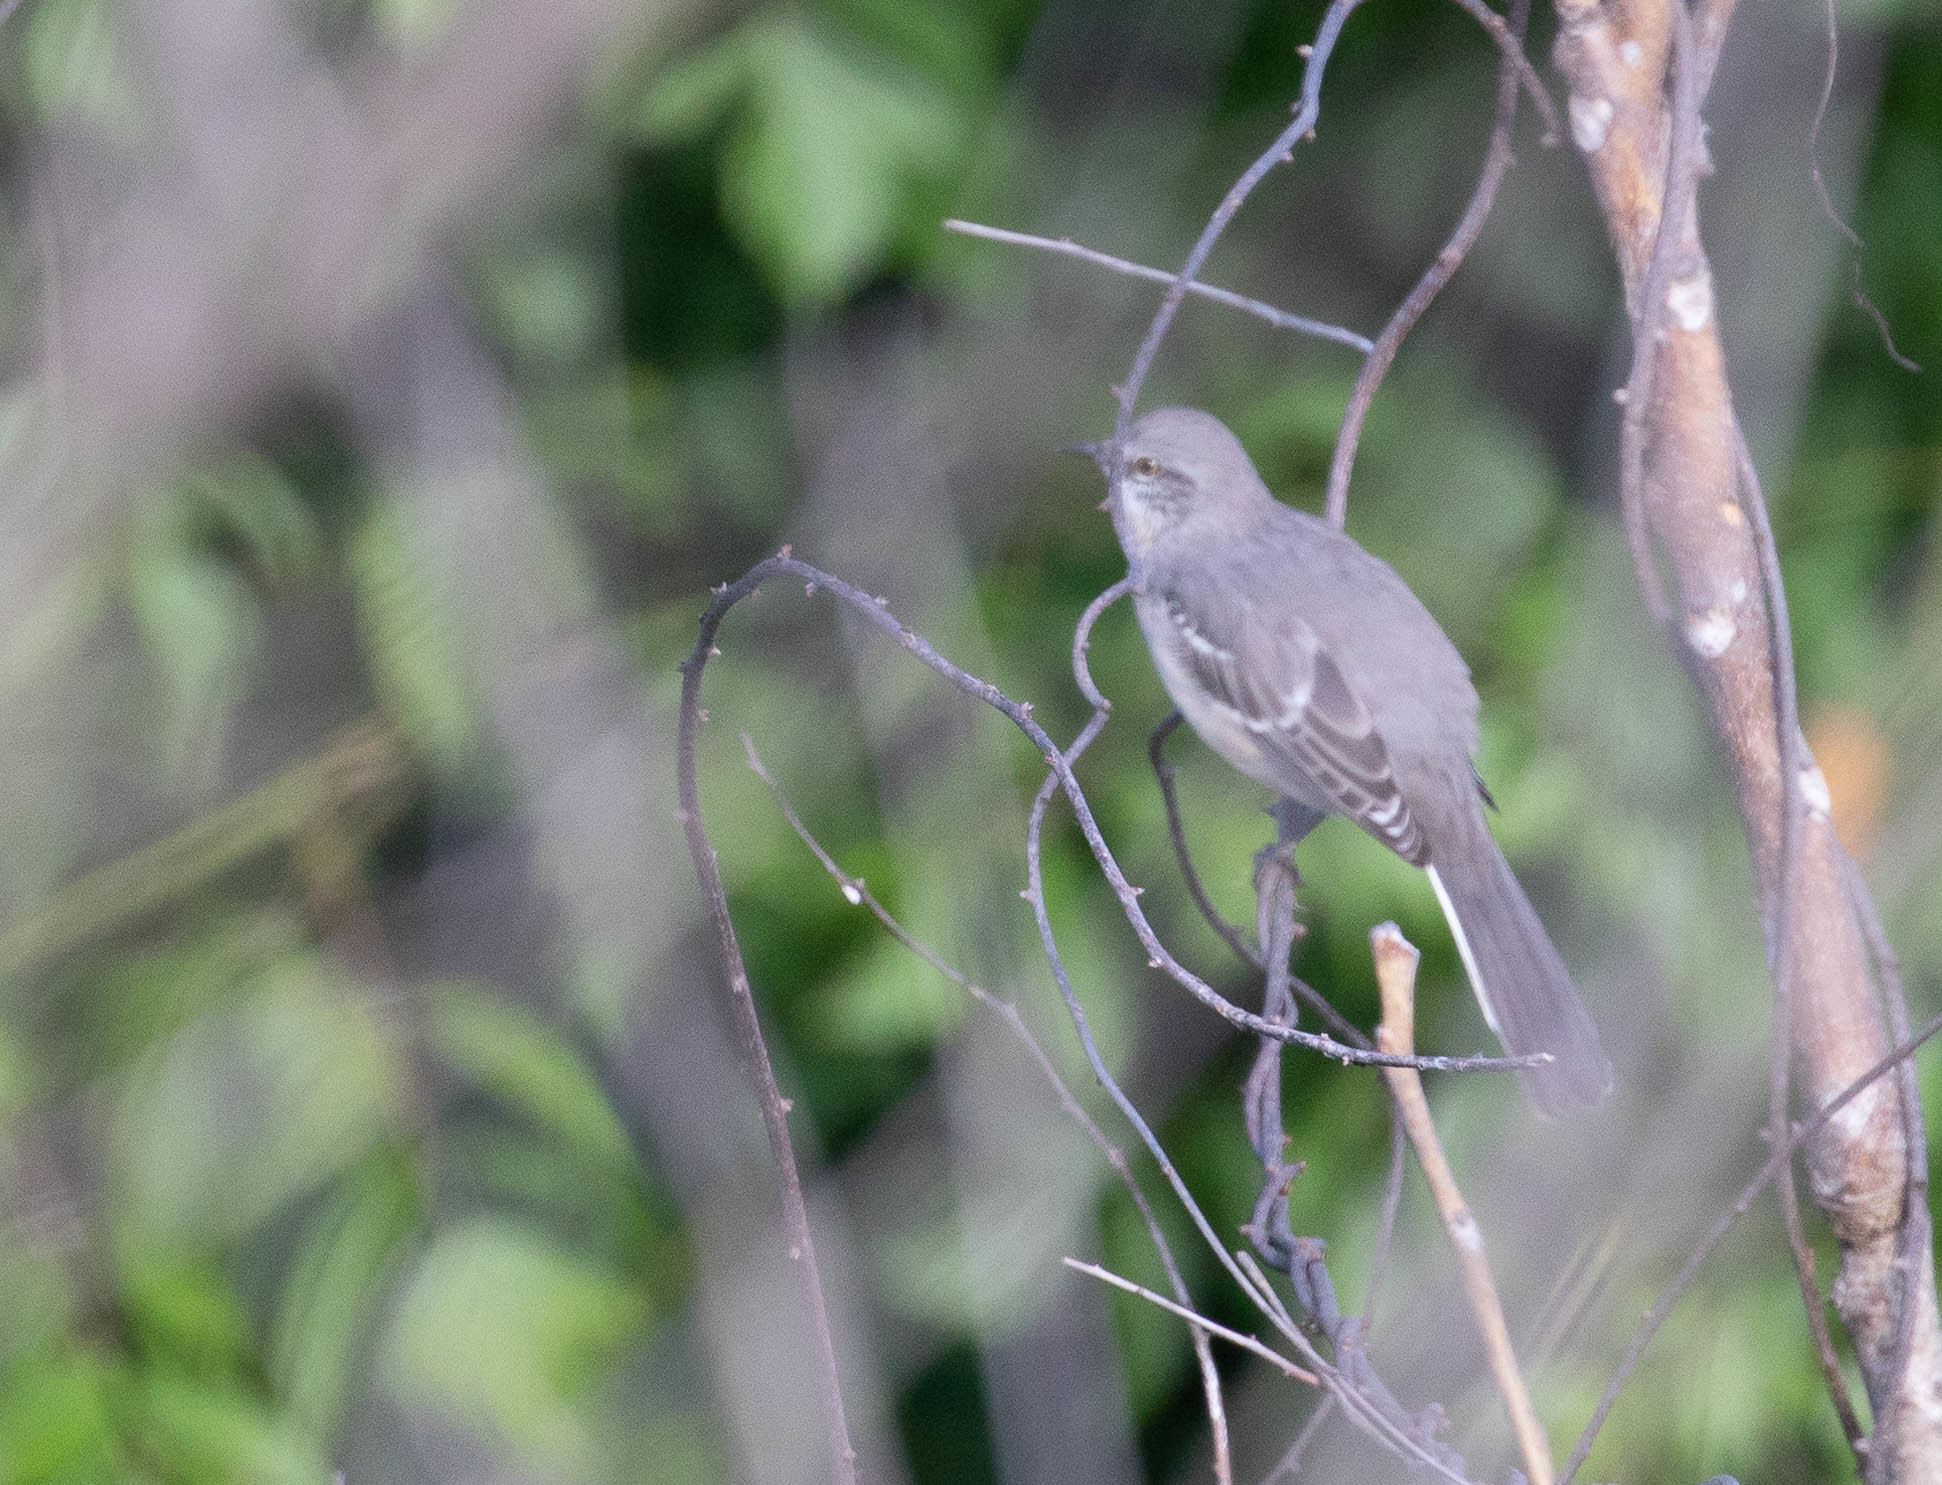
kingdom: Animalia
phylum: Chordata
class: Aves
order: Passeriformes
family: Mimidae
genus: Mimus
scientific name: Mimus polyglottos
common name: Northern mockingbird
